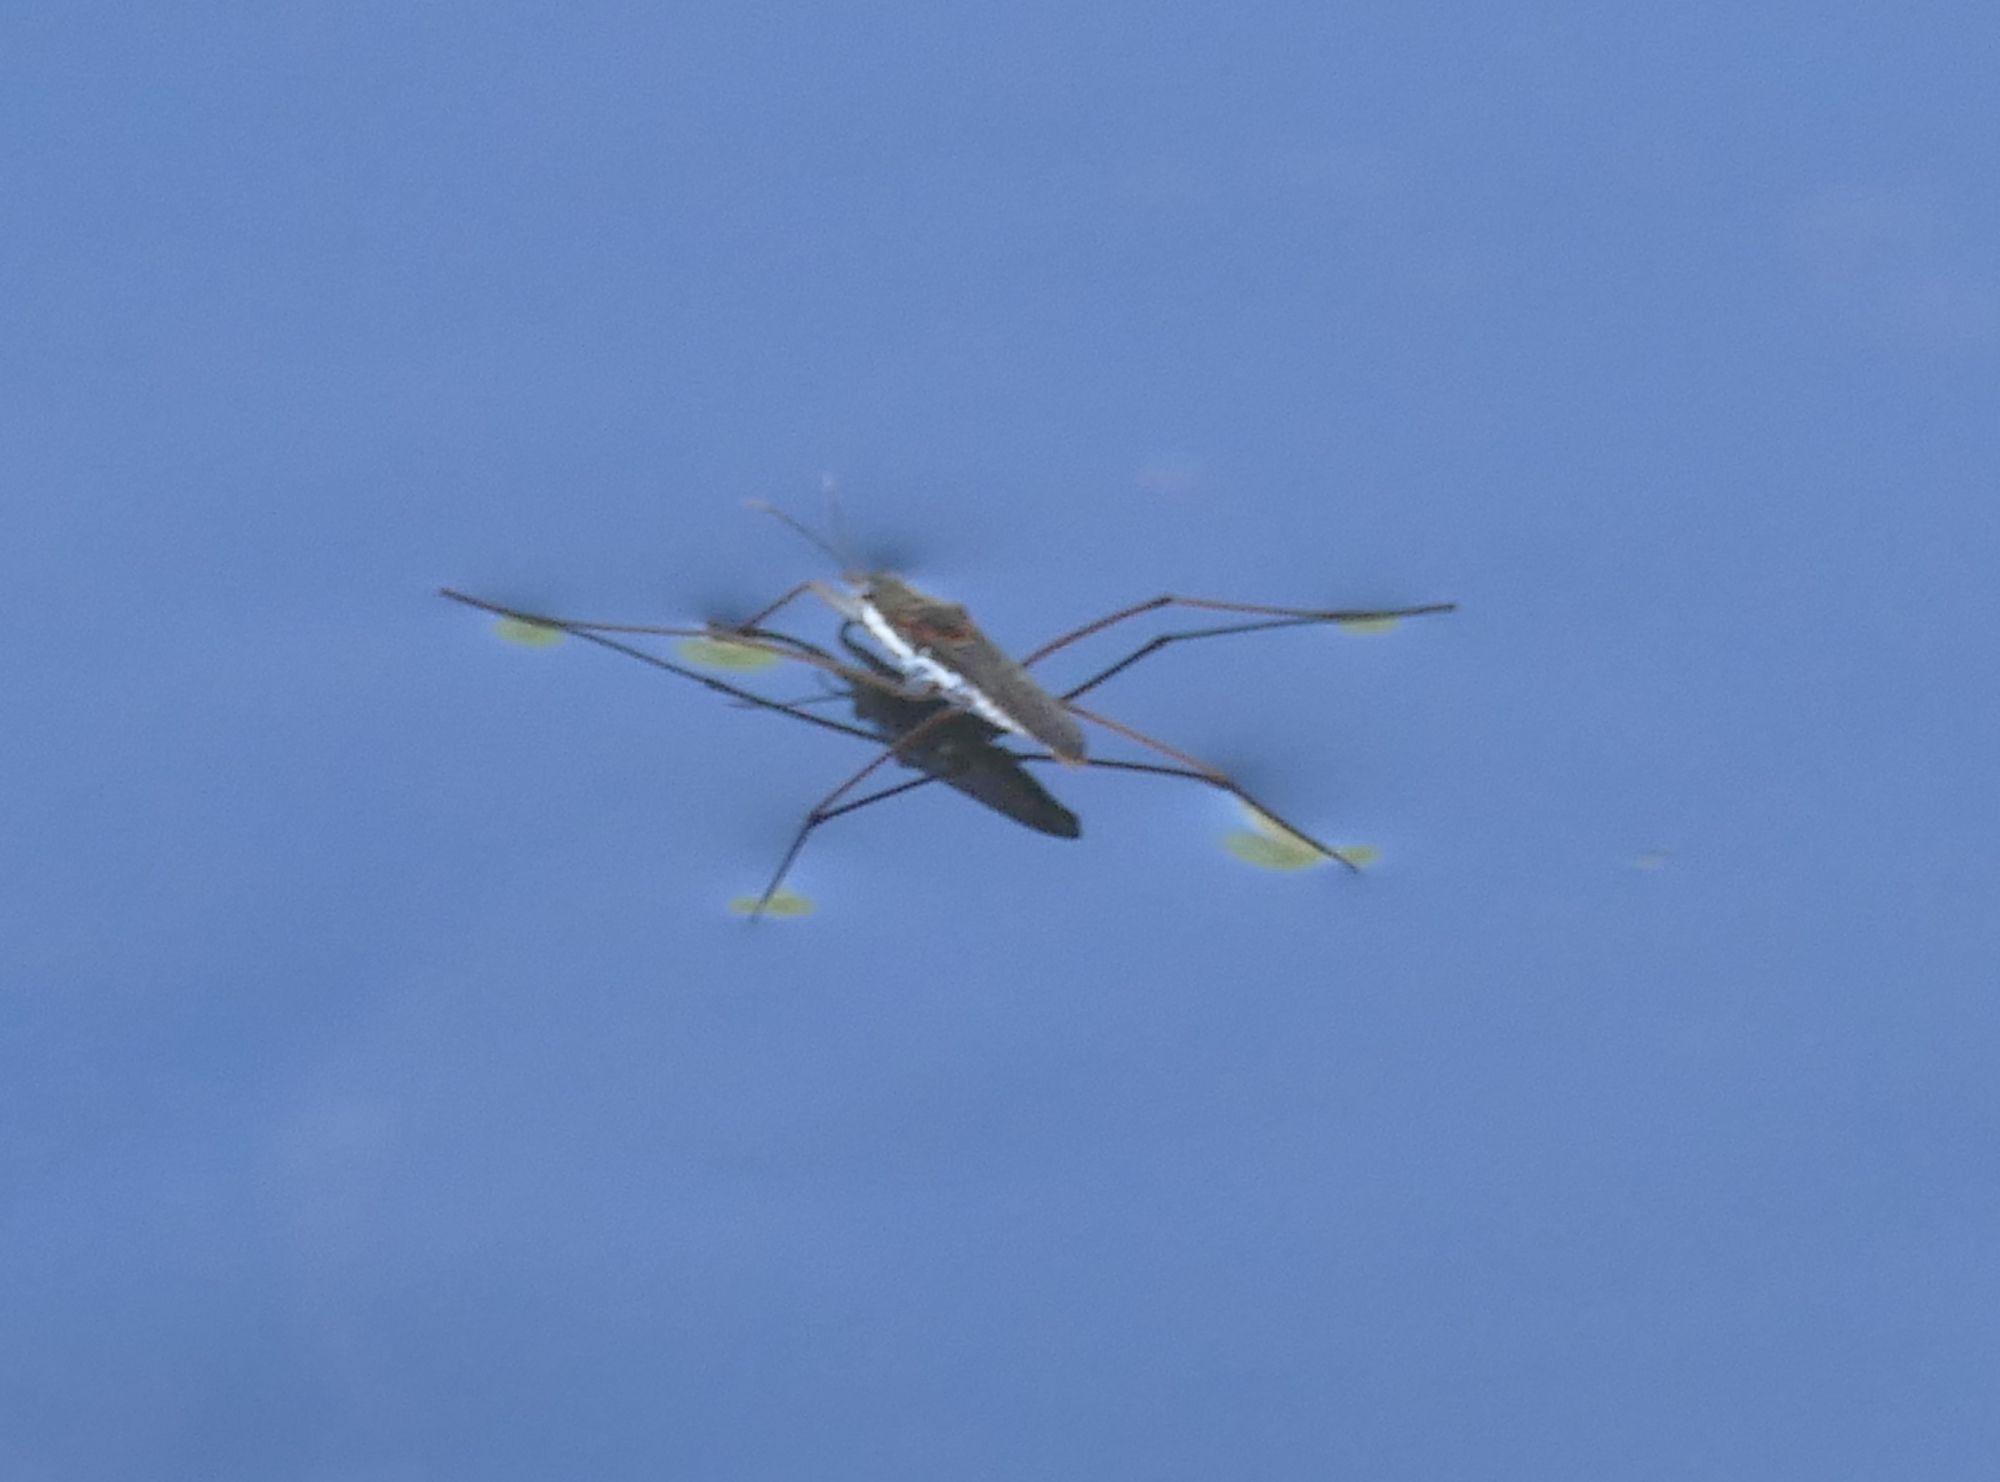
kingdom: Animalia
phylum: Arthropoda
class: Insecta
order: Hemiptera
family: Gerridae
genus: Aquarius
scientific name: Aquarius remigis
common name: Common water strider
